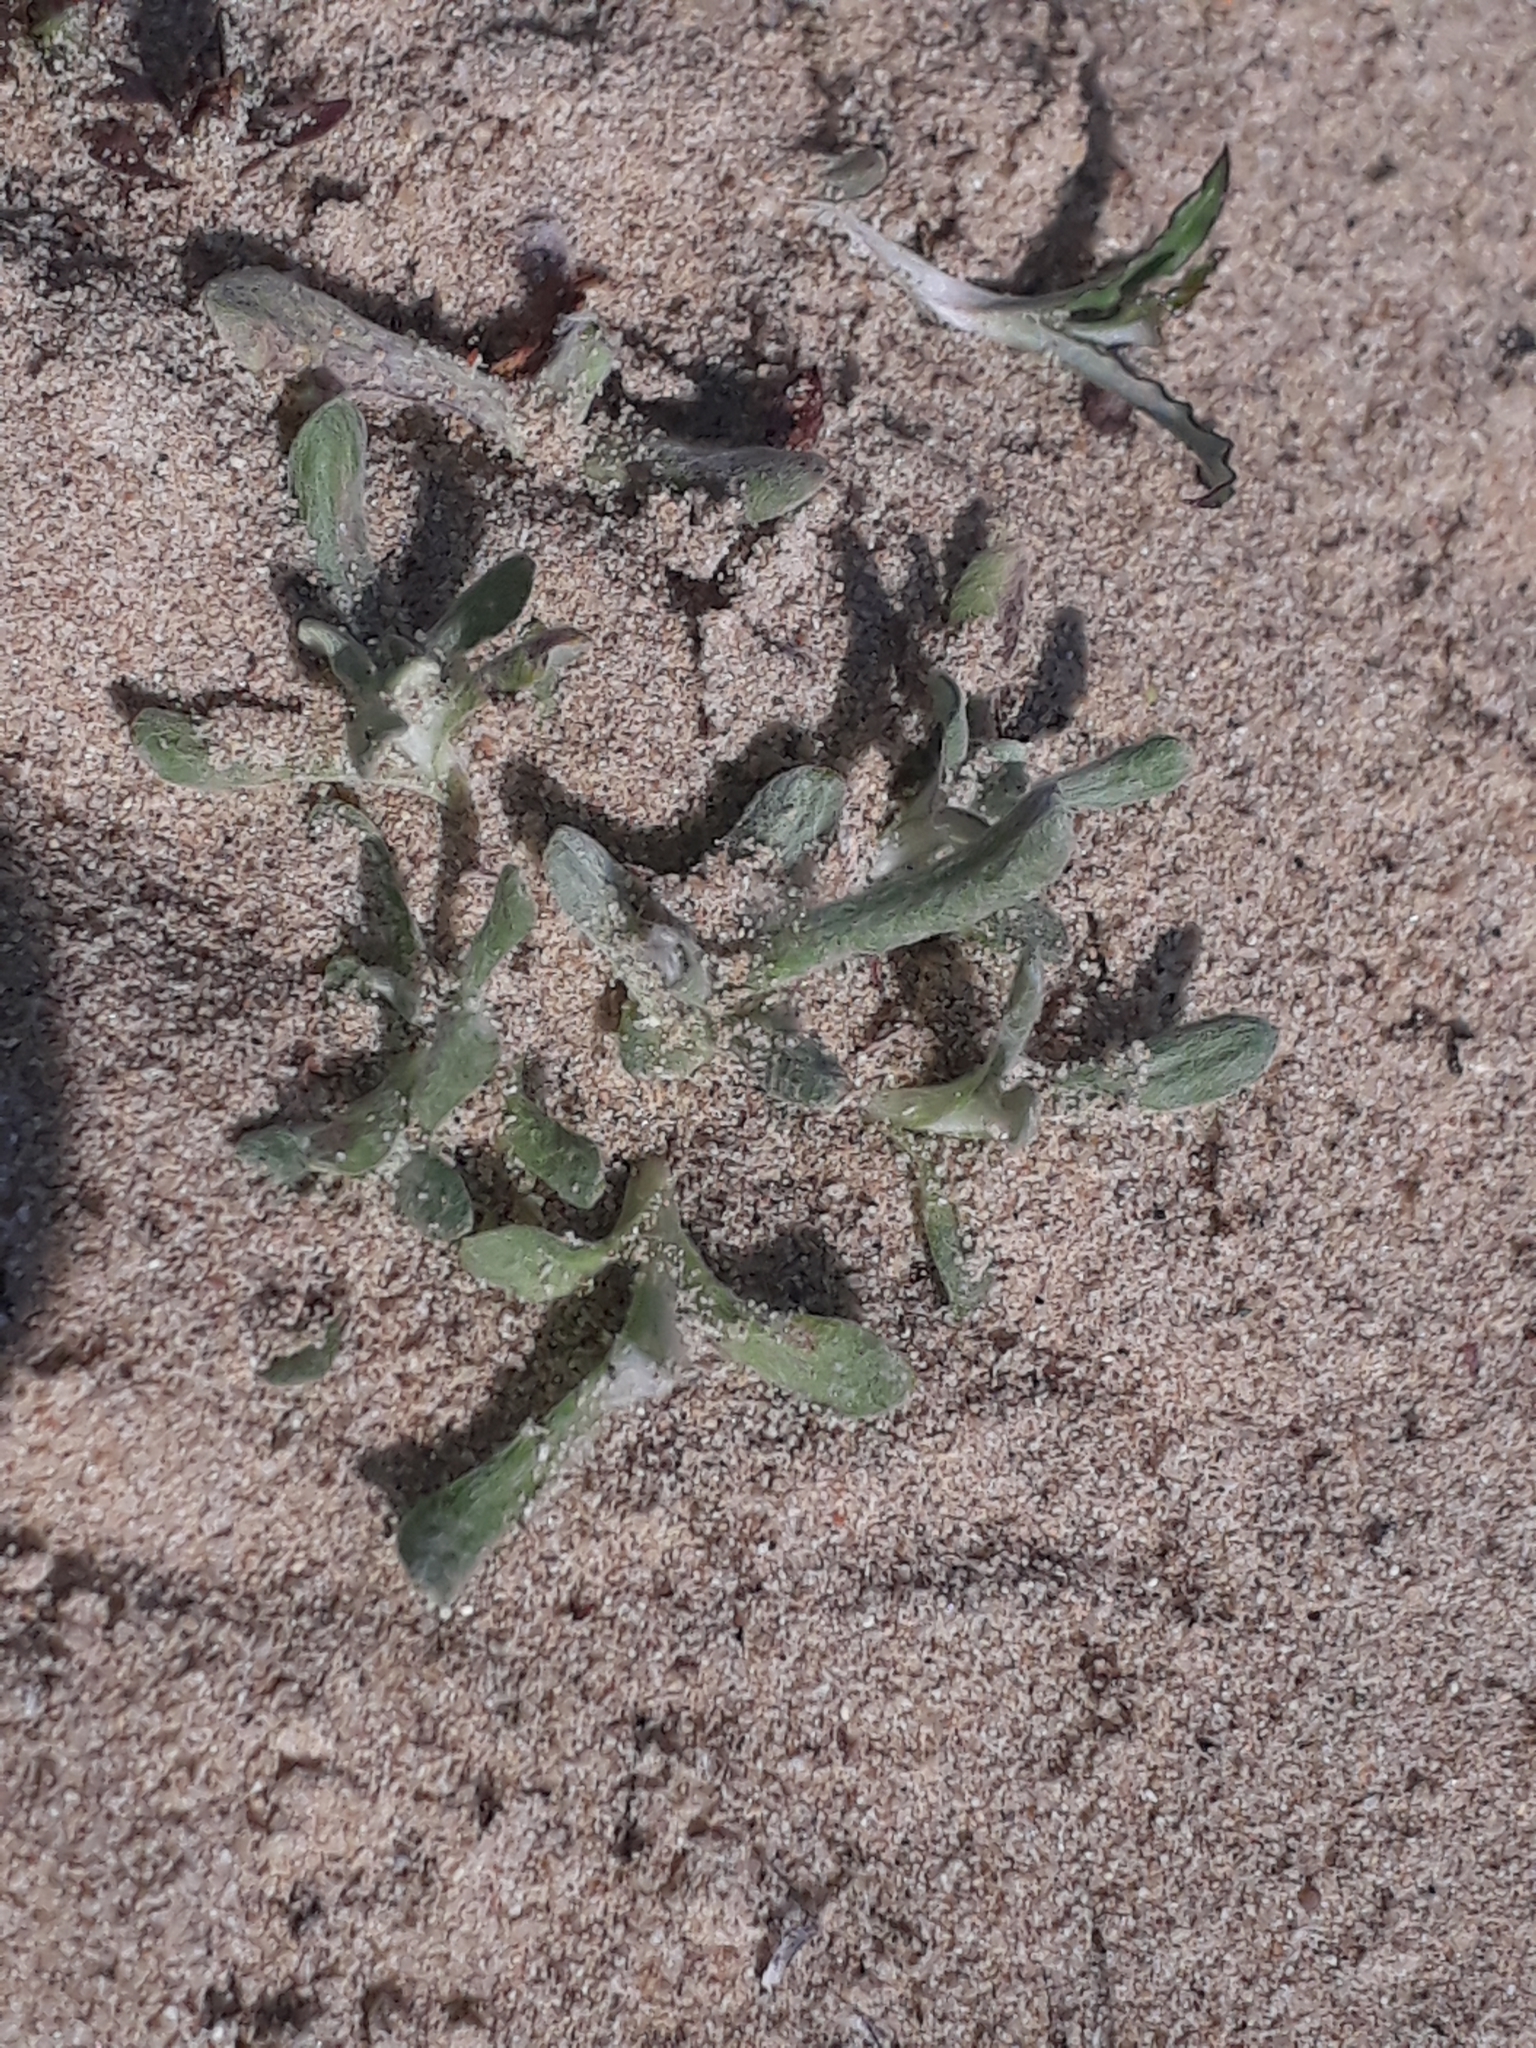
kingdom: Plantae
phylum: Tracheophyta
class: Magnoliopsida
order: Asterales
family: Asteraceae
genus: Vellereophyton
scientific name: Vellereophyton dealbatum
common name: White-cudweed
